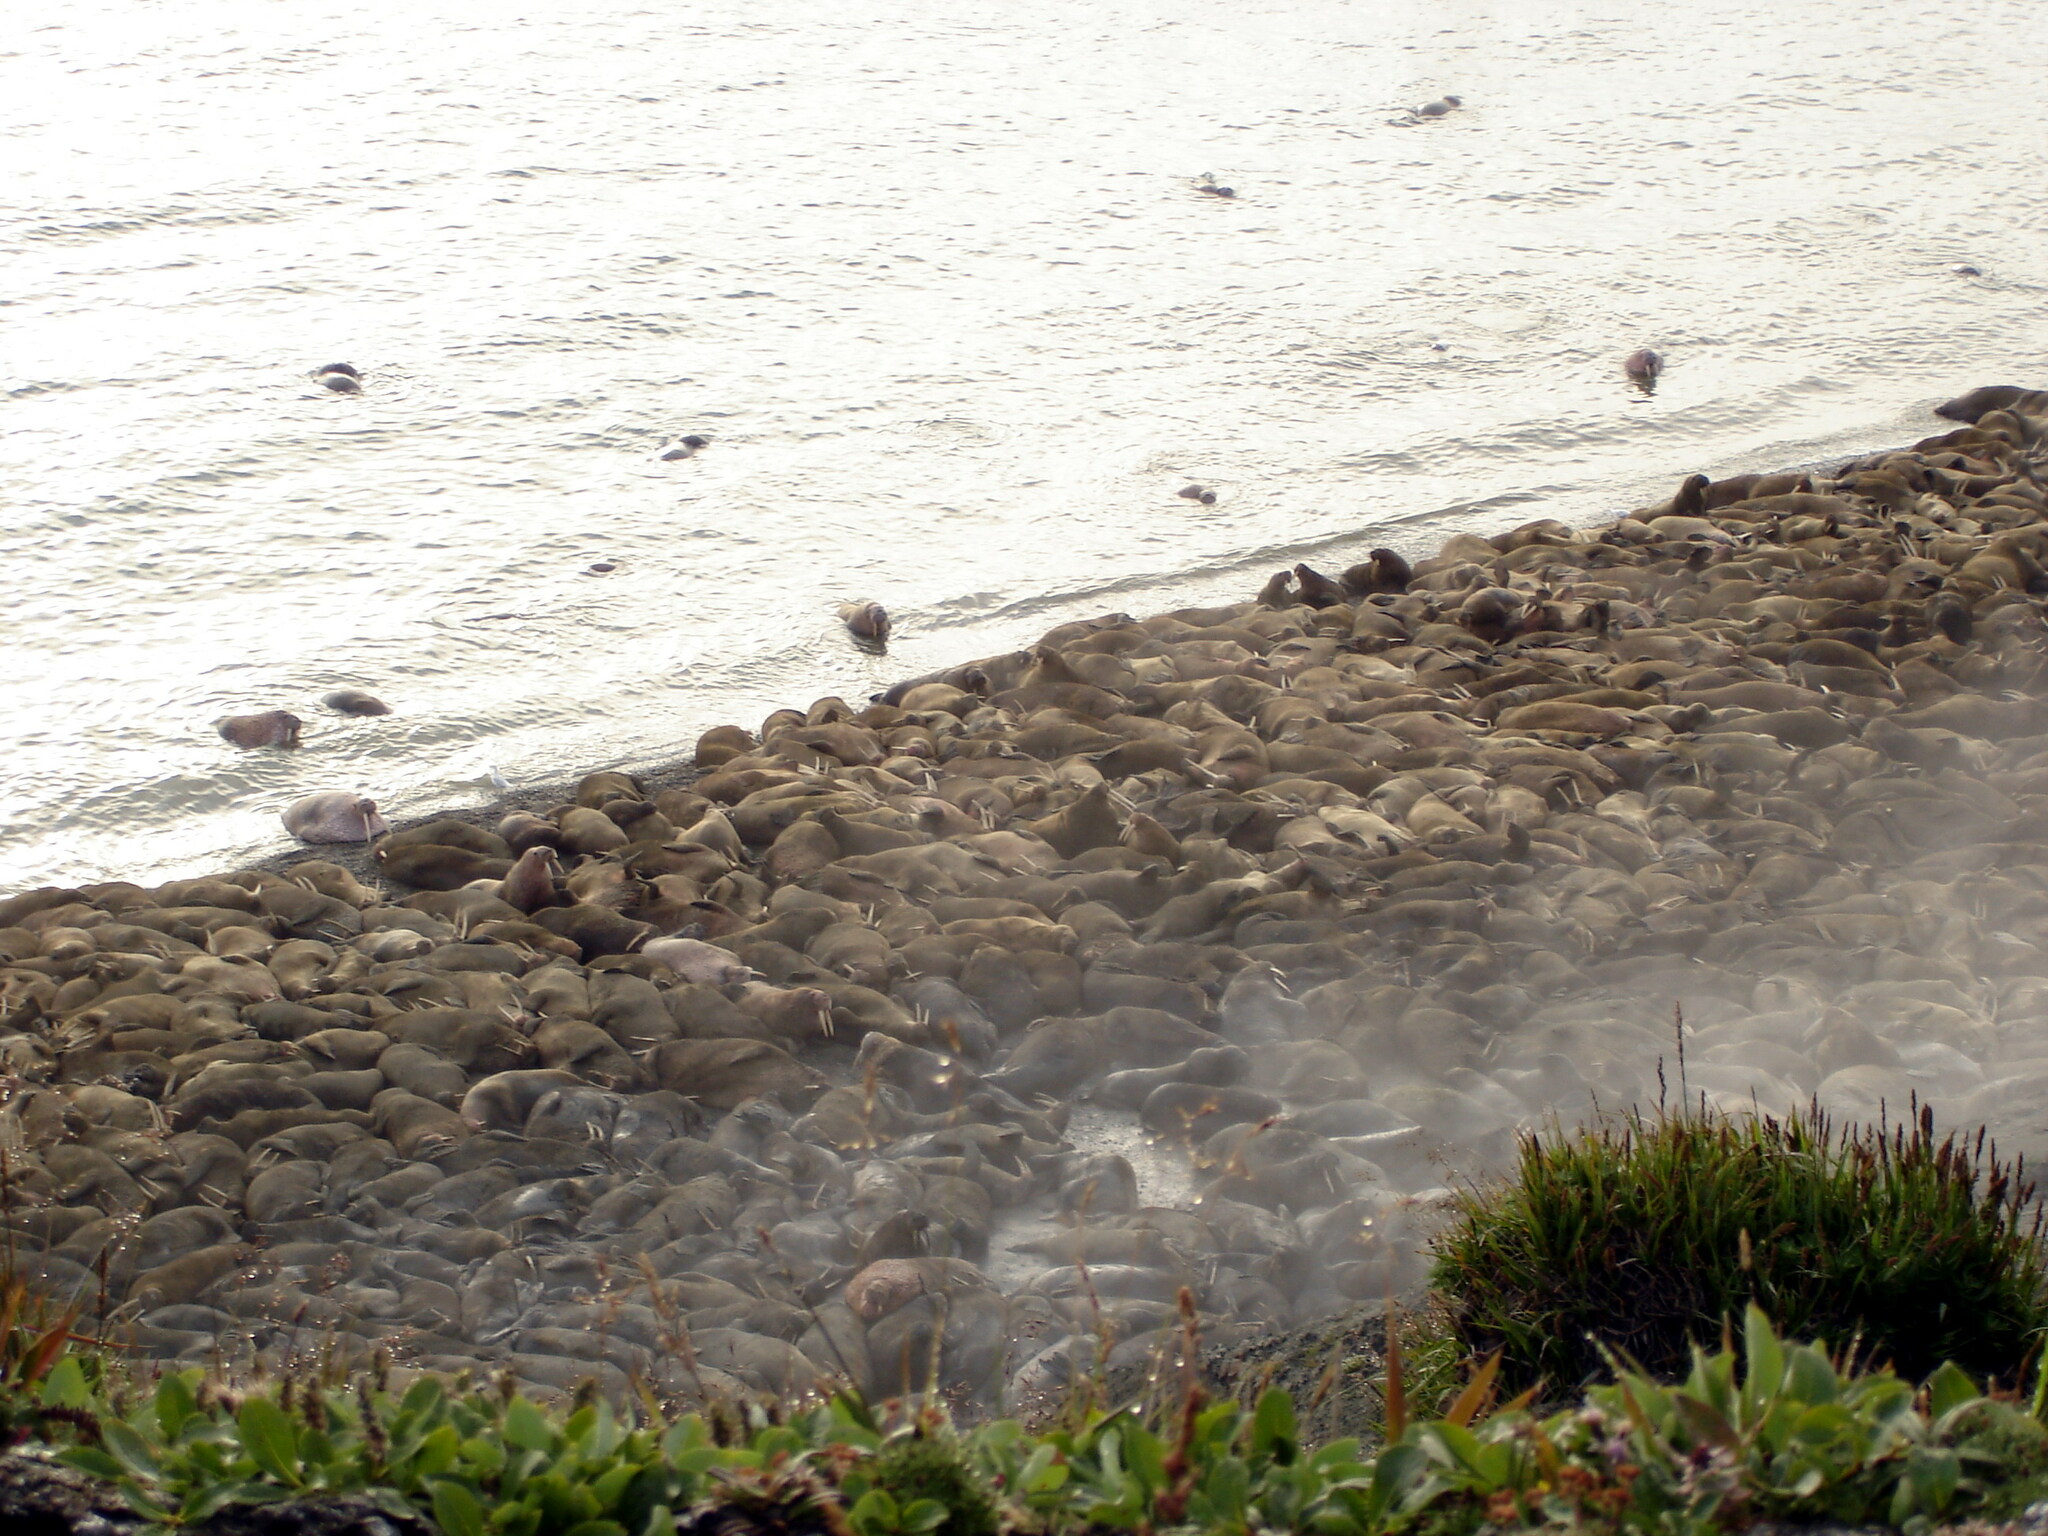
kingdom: Animalia
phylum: Chordata
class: Mammalia
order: Carnivora
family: Odobenidae
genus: Odobenus
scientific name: Odobenus rosmarus
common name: Walrus
